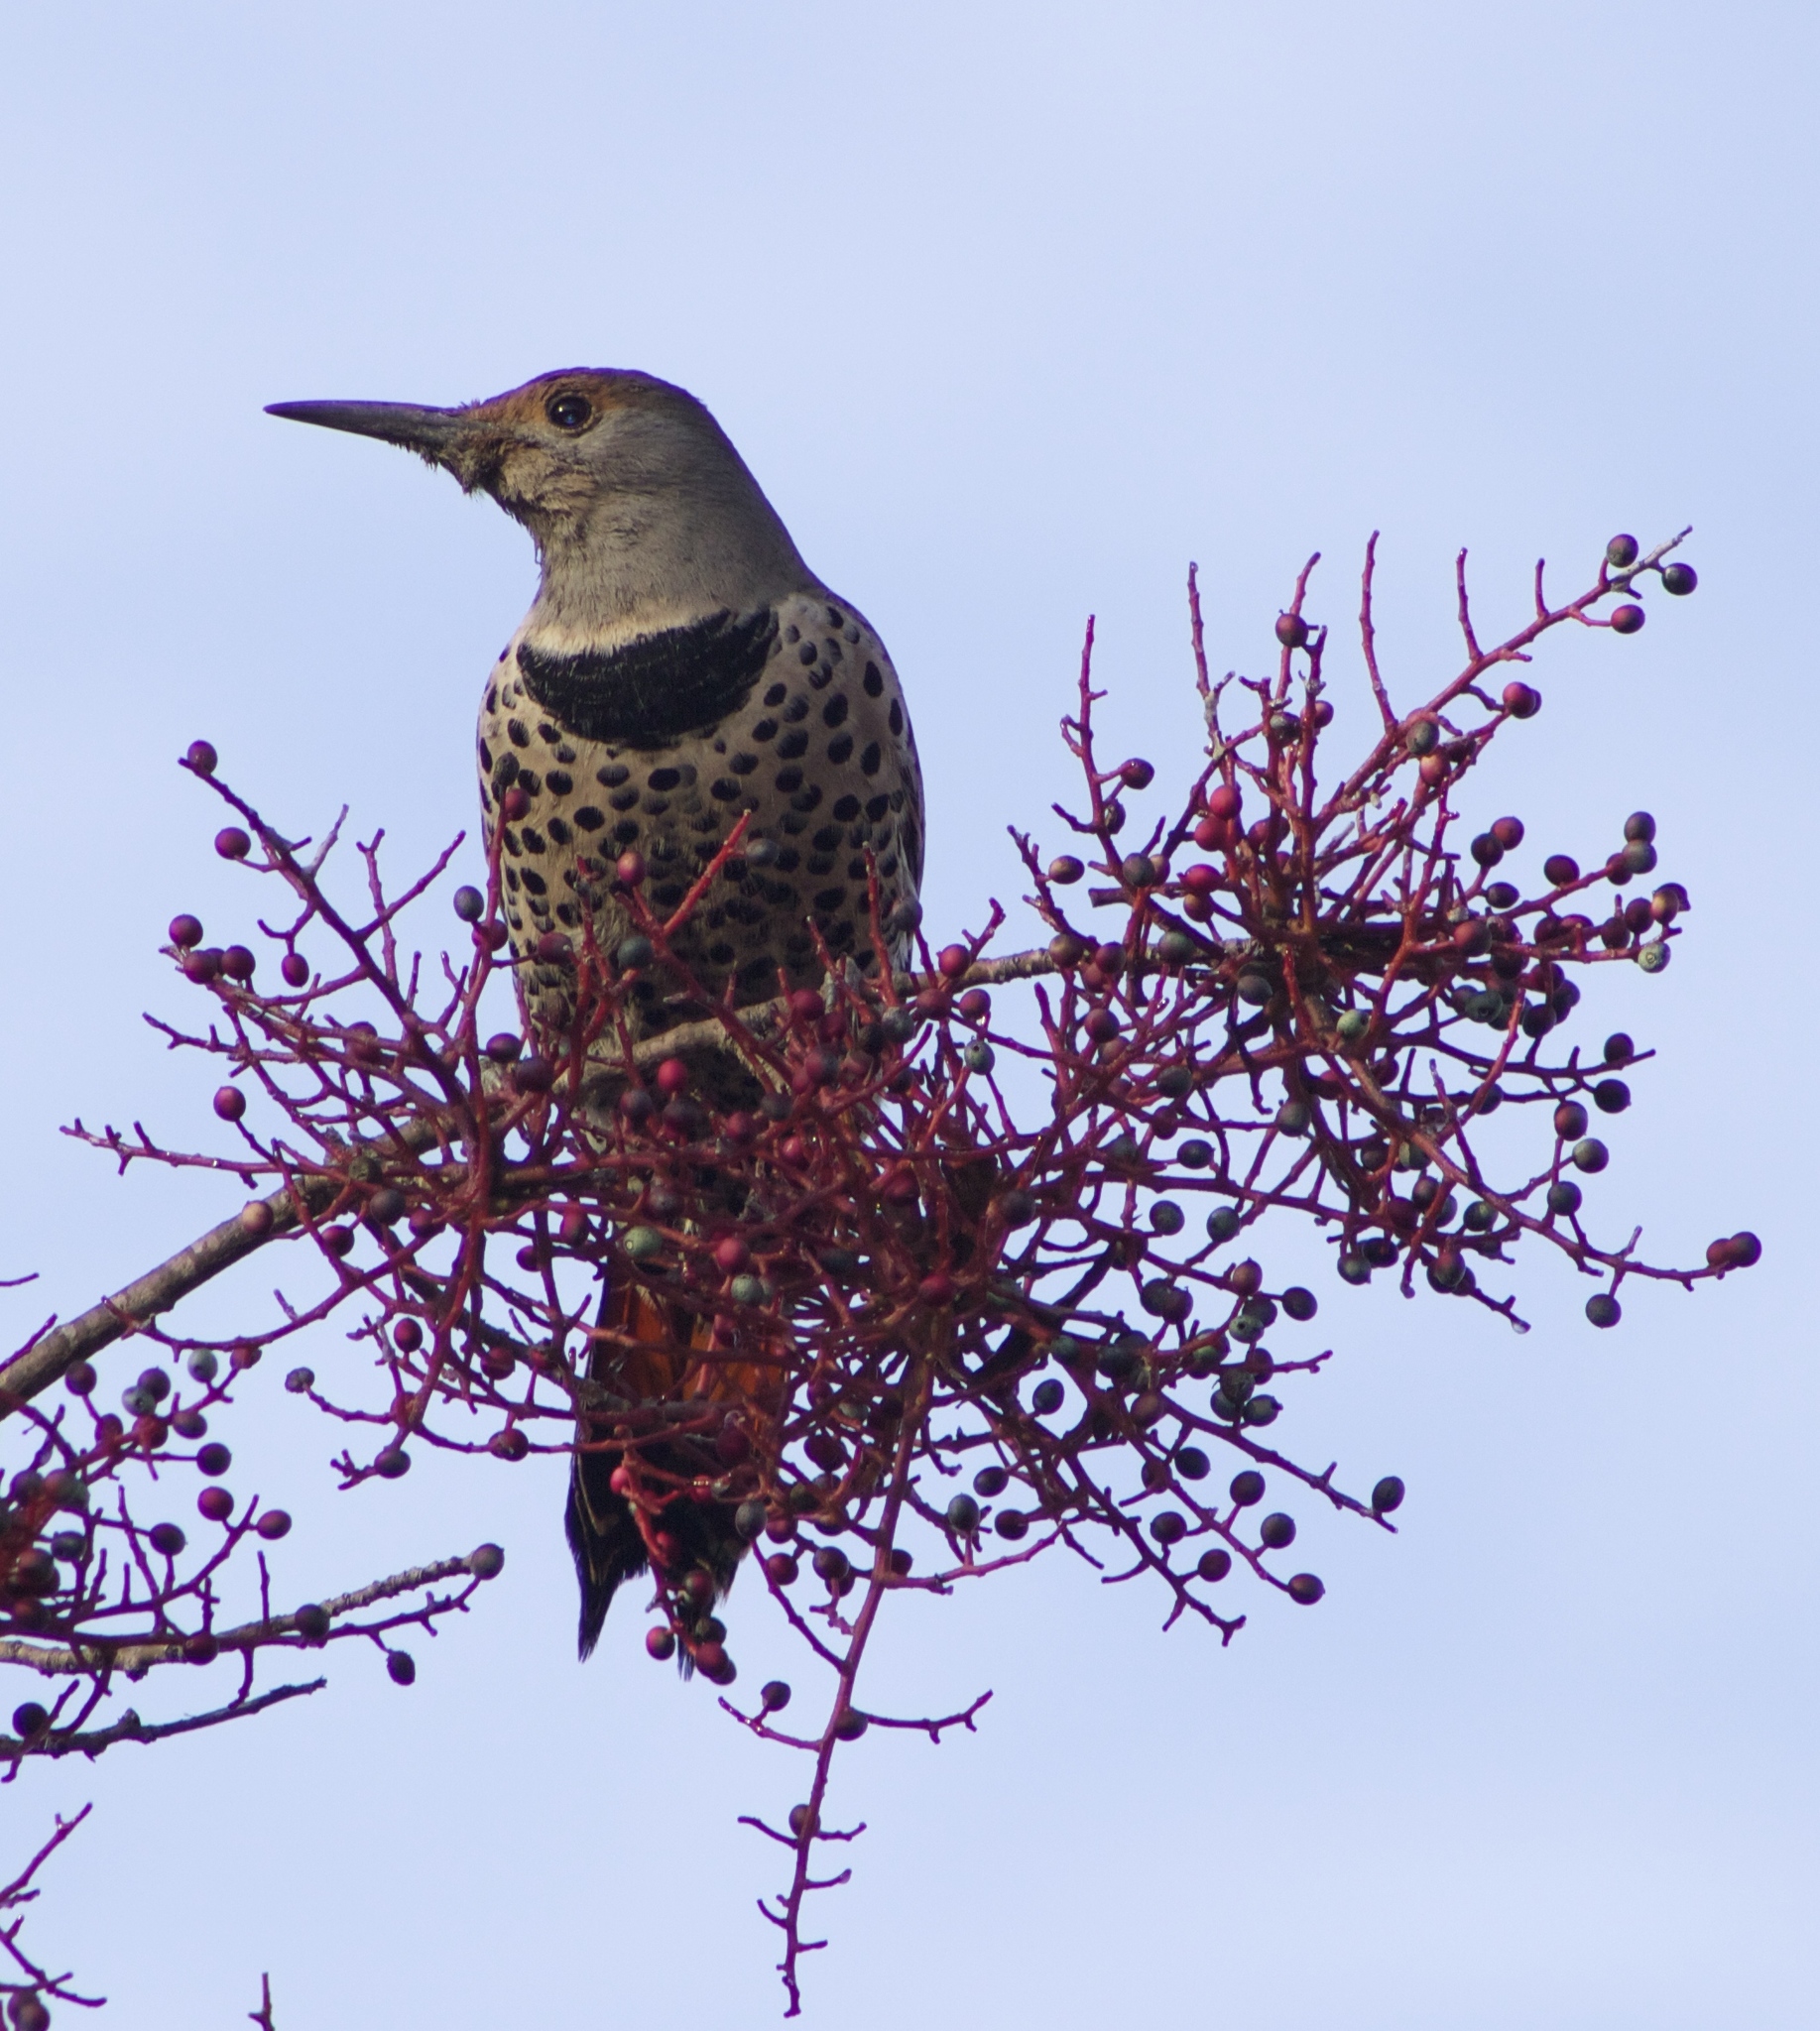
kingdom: Animalia
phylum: Chordata
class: Aves
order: Piciformes
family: Picidae
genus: Colaptes
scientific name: Colaptes auratus
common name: Northern flicker
